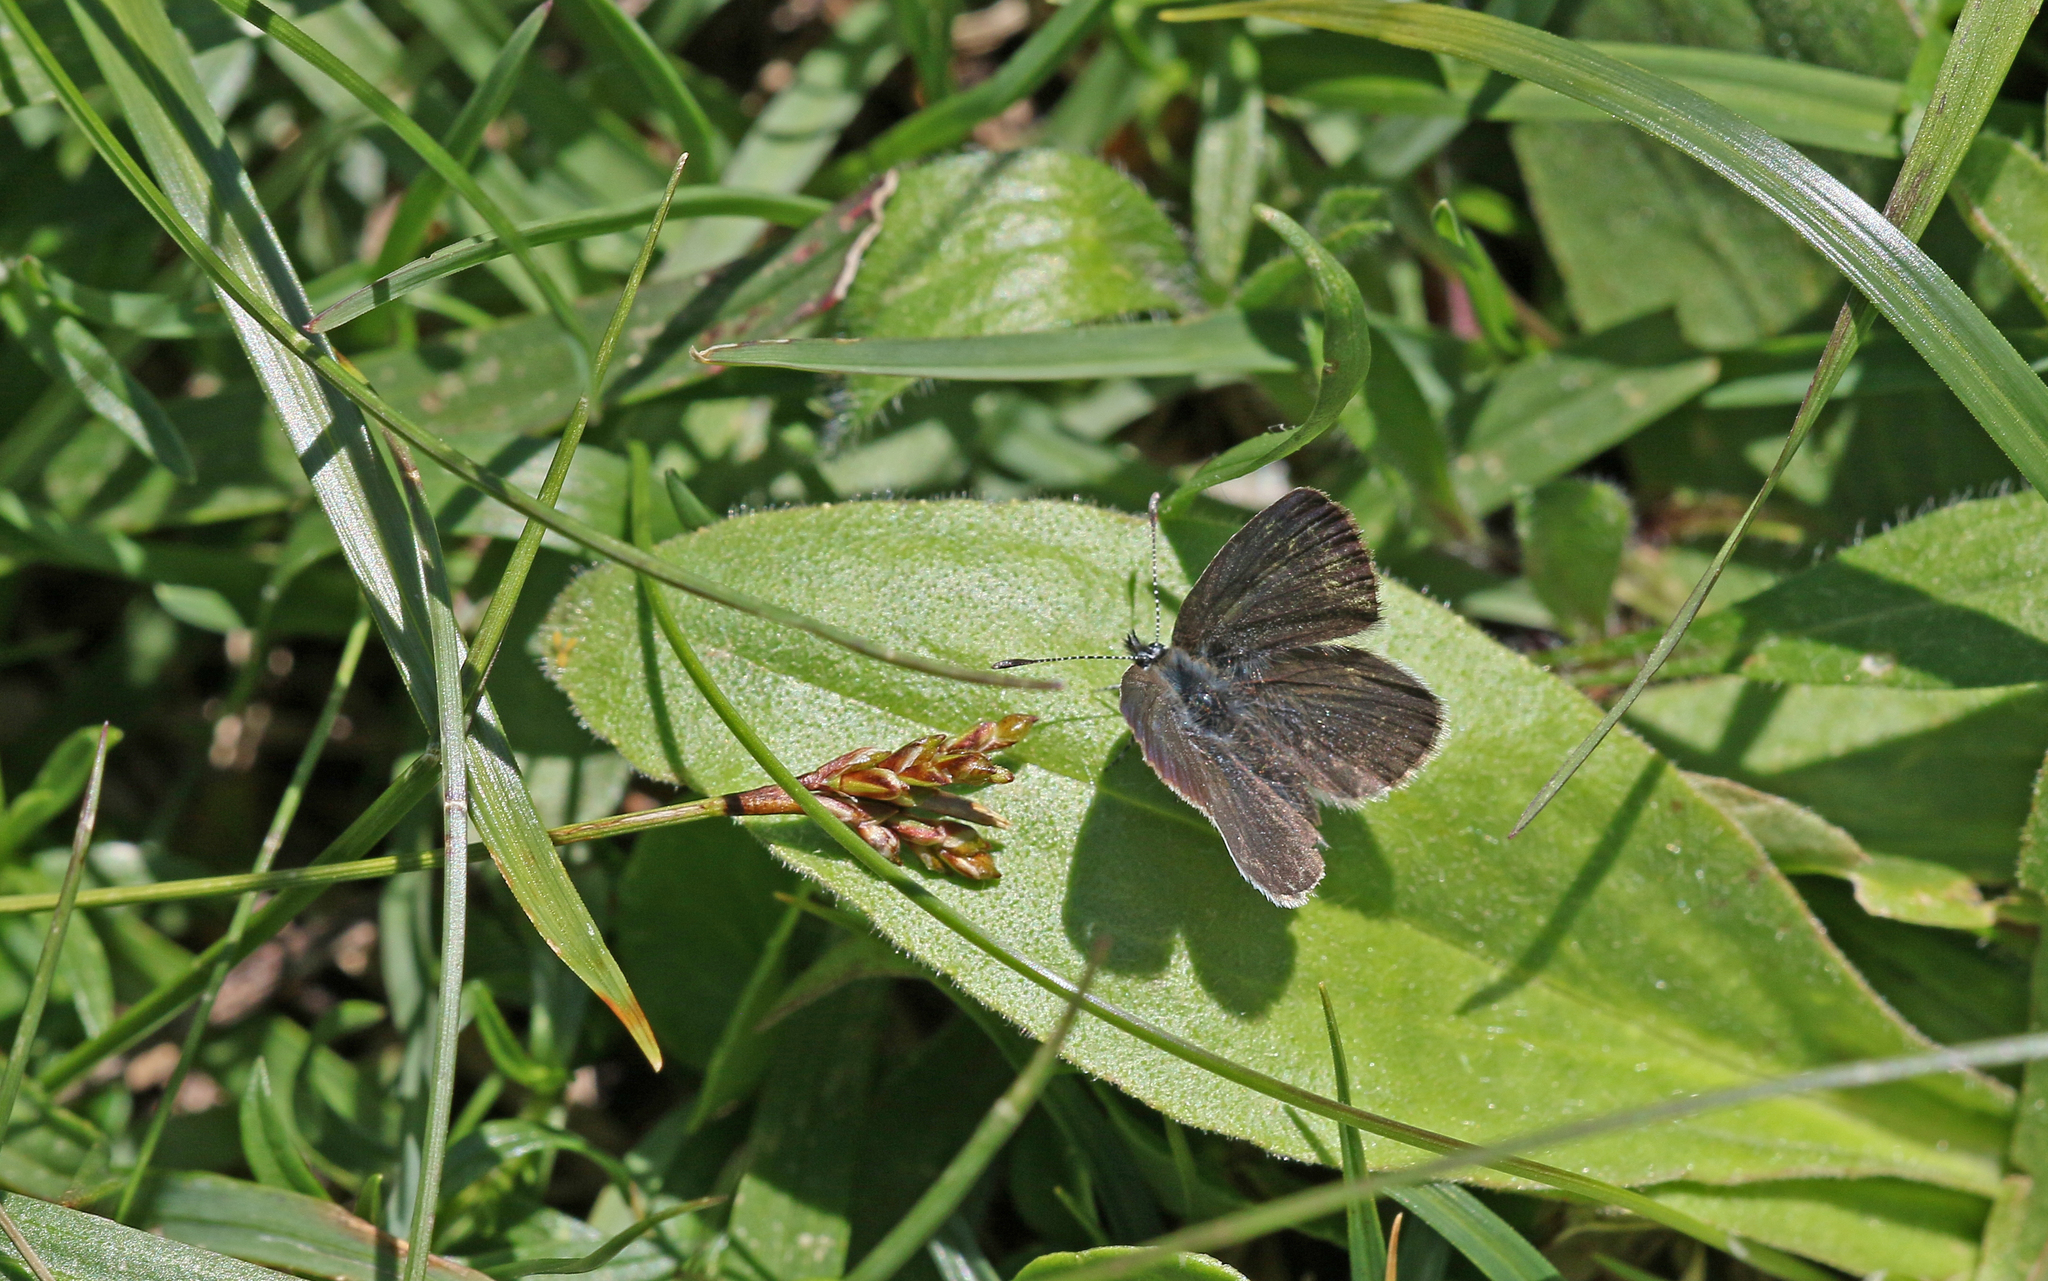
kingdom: Animalia
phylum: Arthropoda
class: Insecta
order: Lepidoptera
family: Lycaenidae
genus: Cupido
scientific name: Cupido minimus
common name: Small blue
